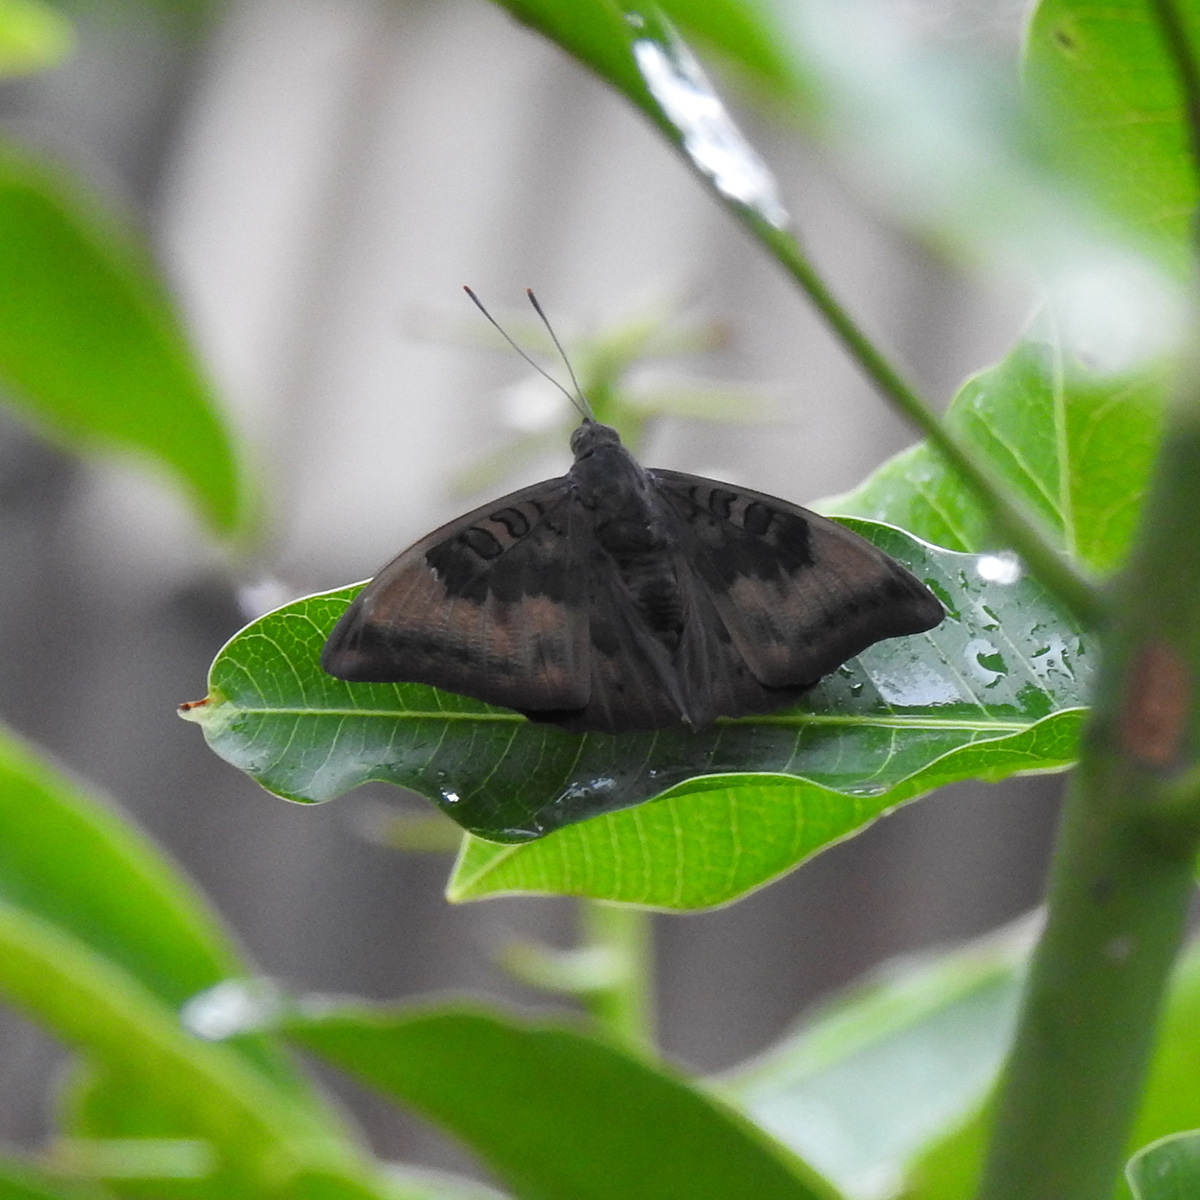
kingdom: Animalia
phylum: Arthropoda
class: Insecta
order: Lepidoptera
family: Nymphalidae
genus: Euthalia
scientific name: Euthalia aconthea
